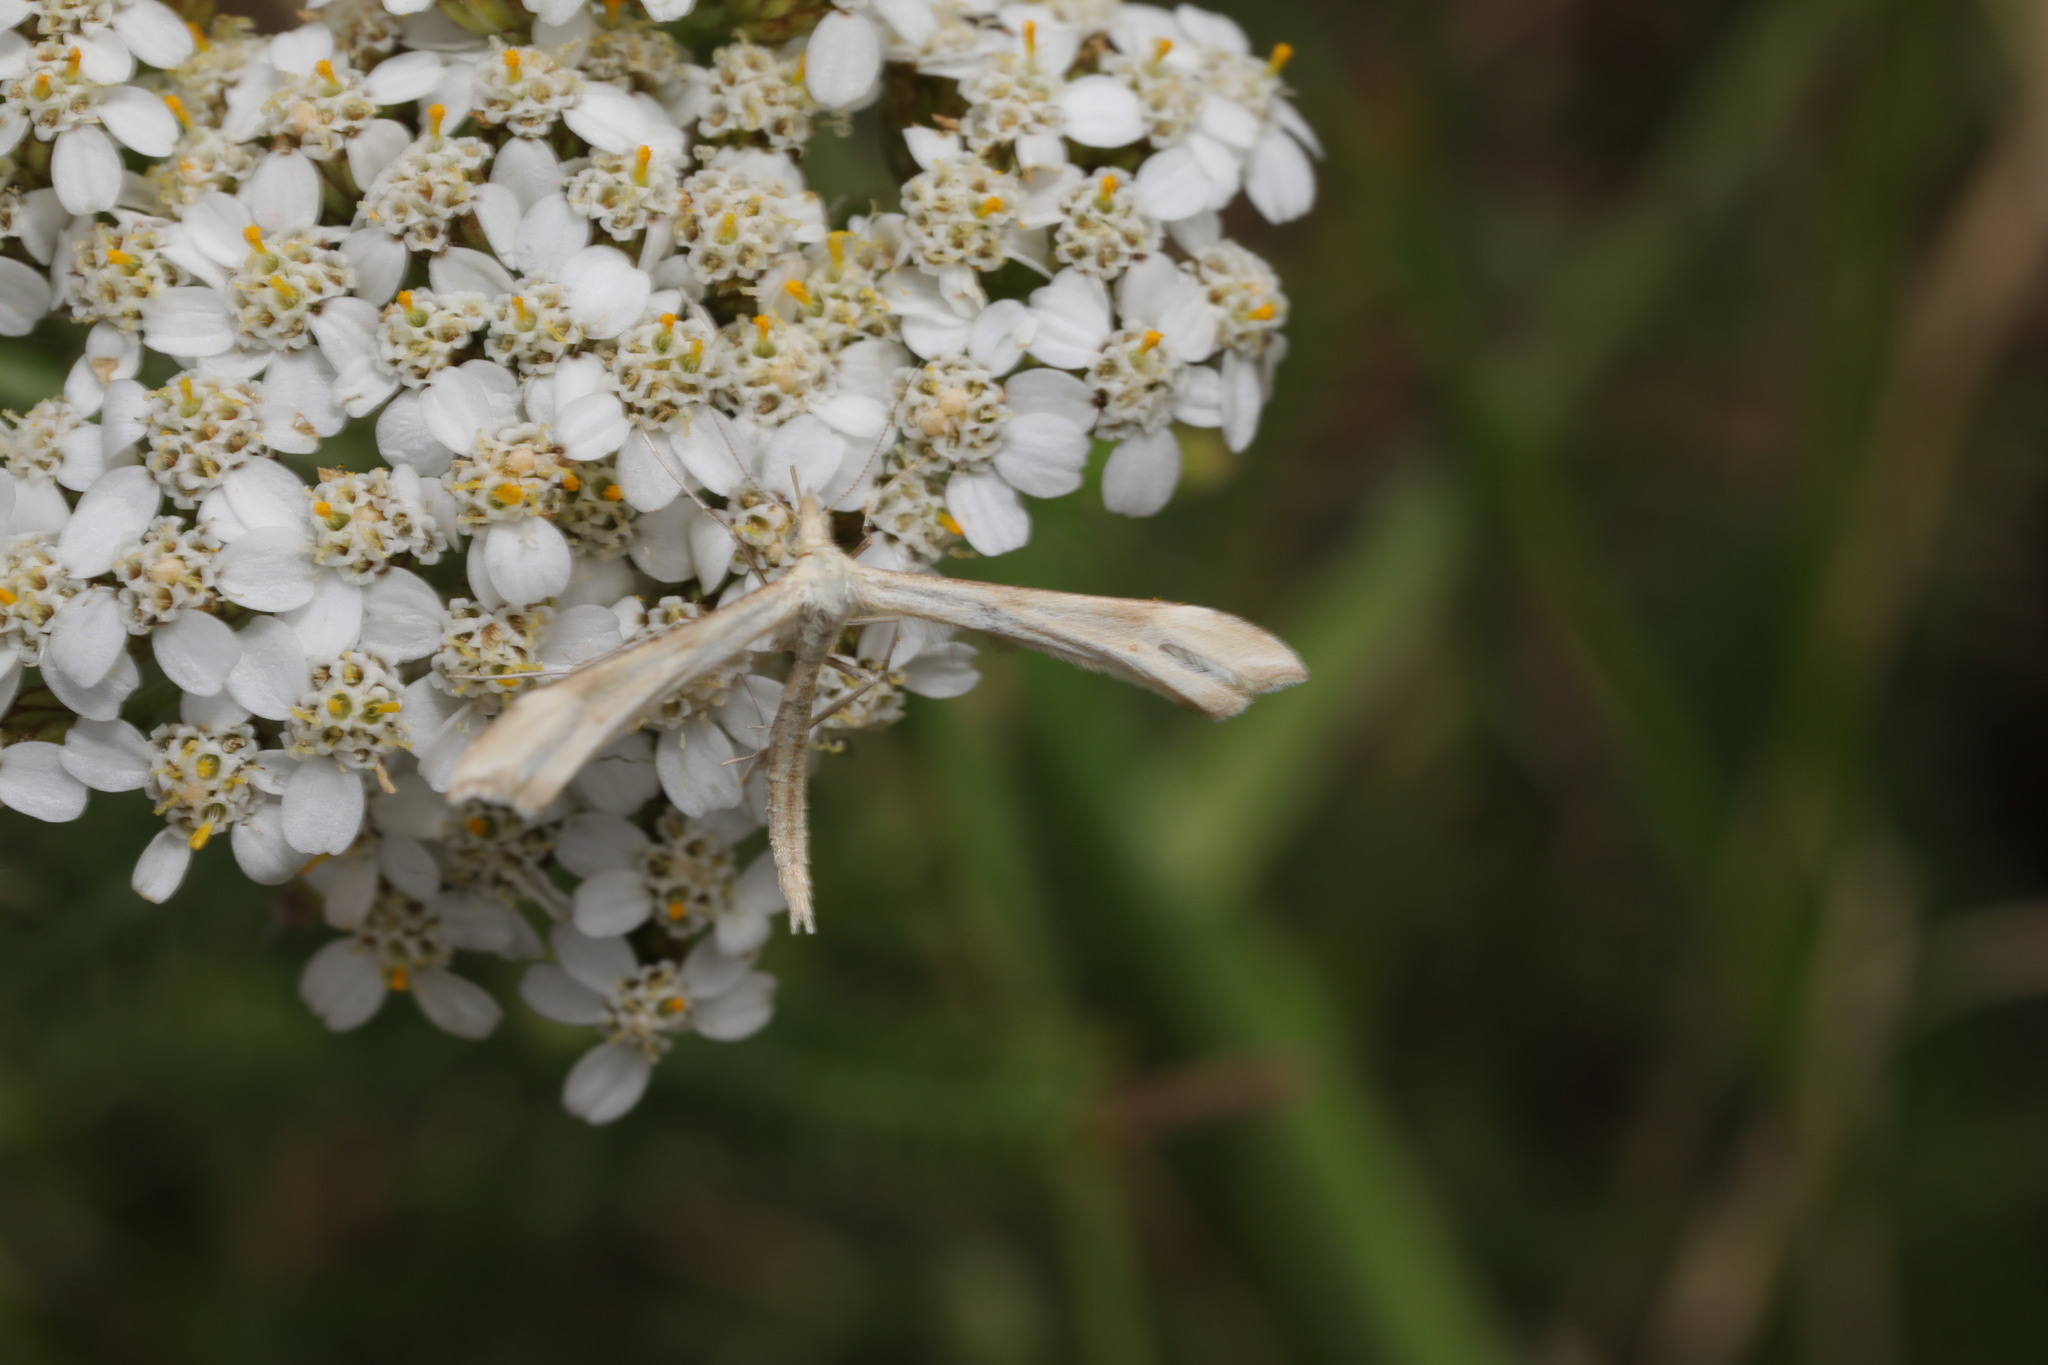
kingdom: Animalia
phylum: Arthropoda
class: Insecta
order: Lepidoptera
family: Pterophoridae
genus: Gillmeria
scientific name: Gillmeria pallidactyla
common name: Yarrow plume
